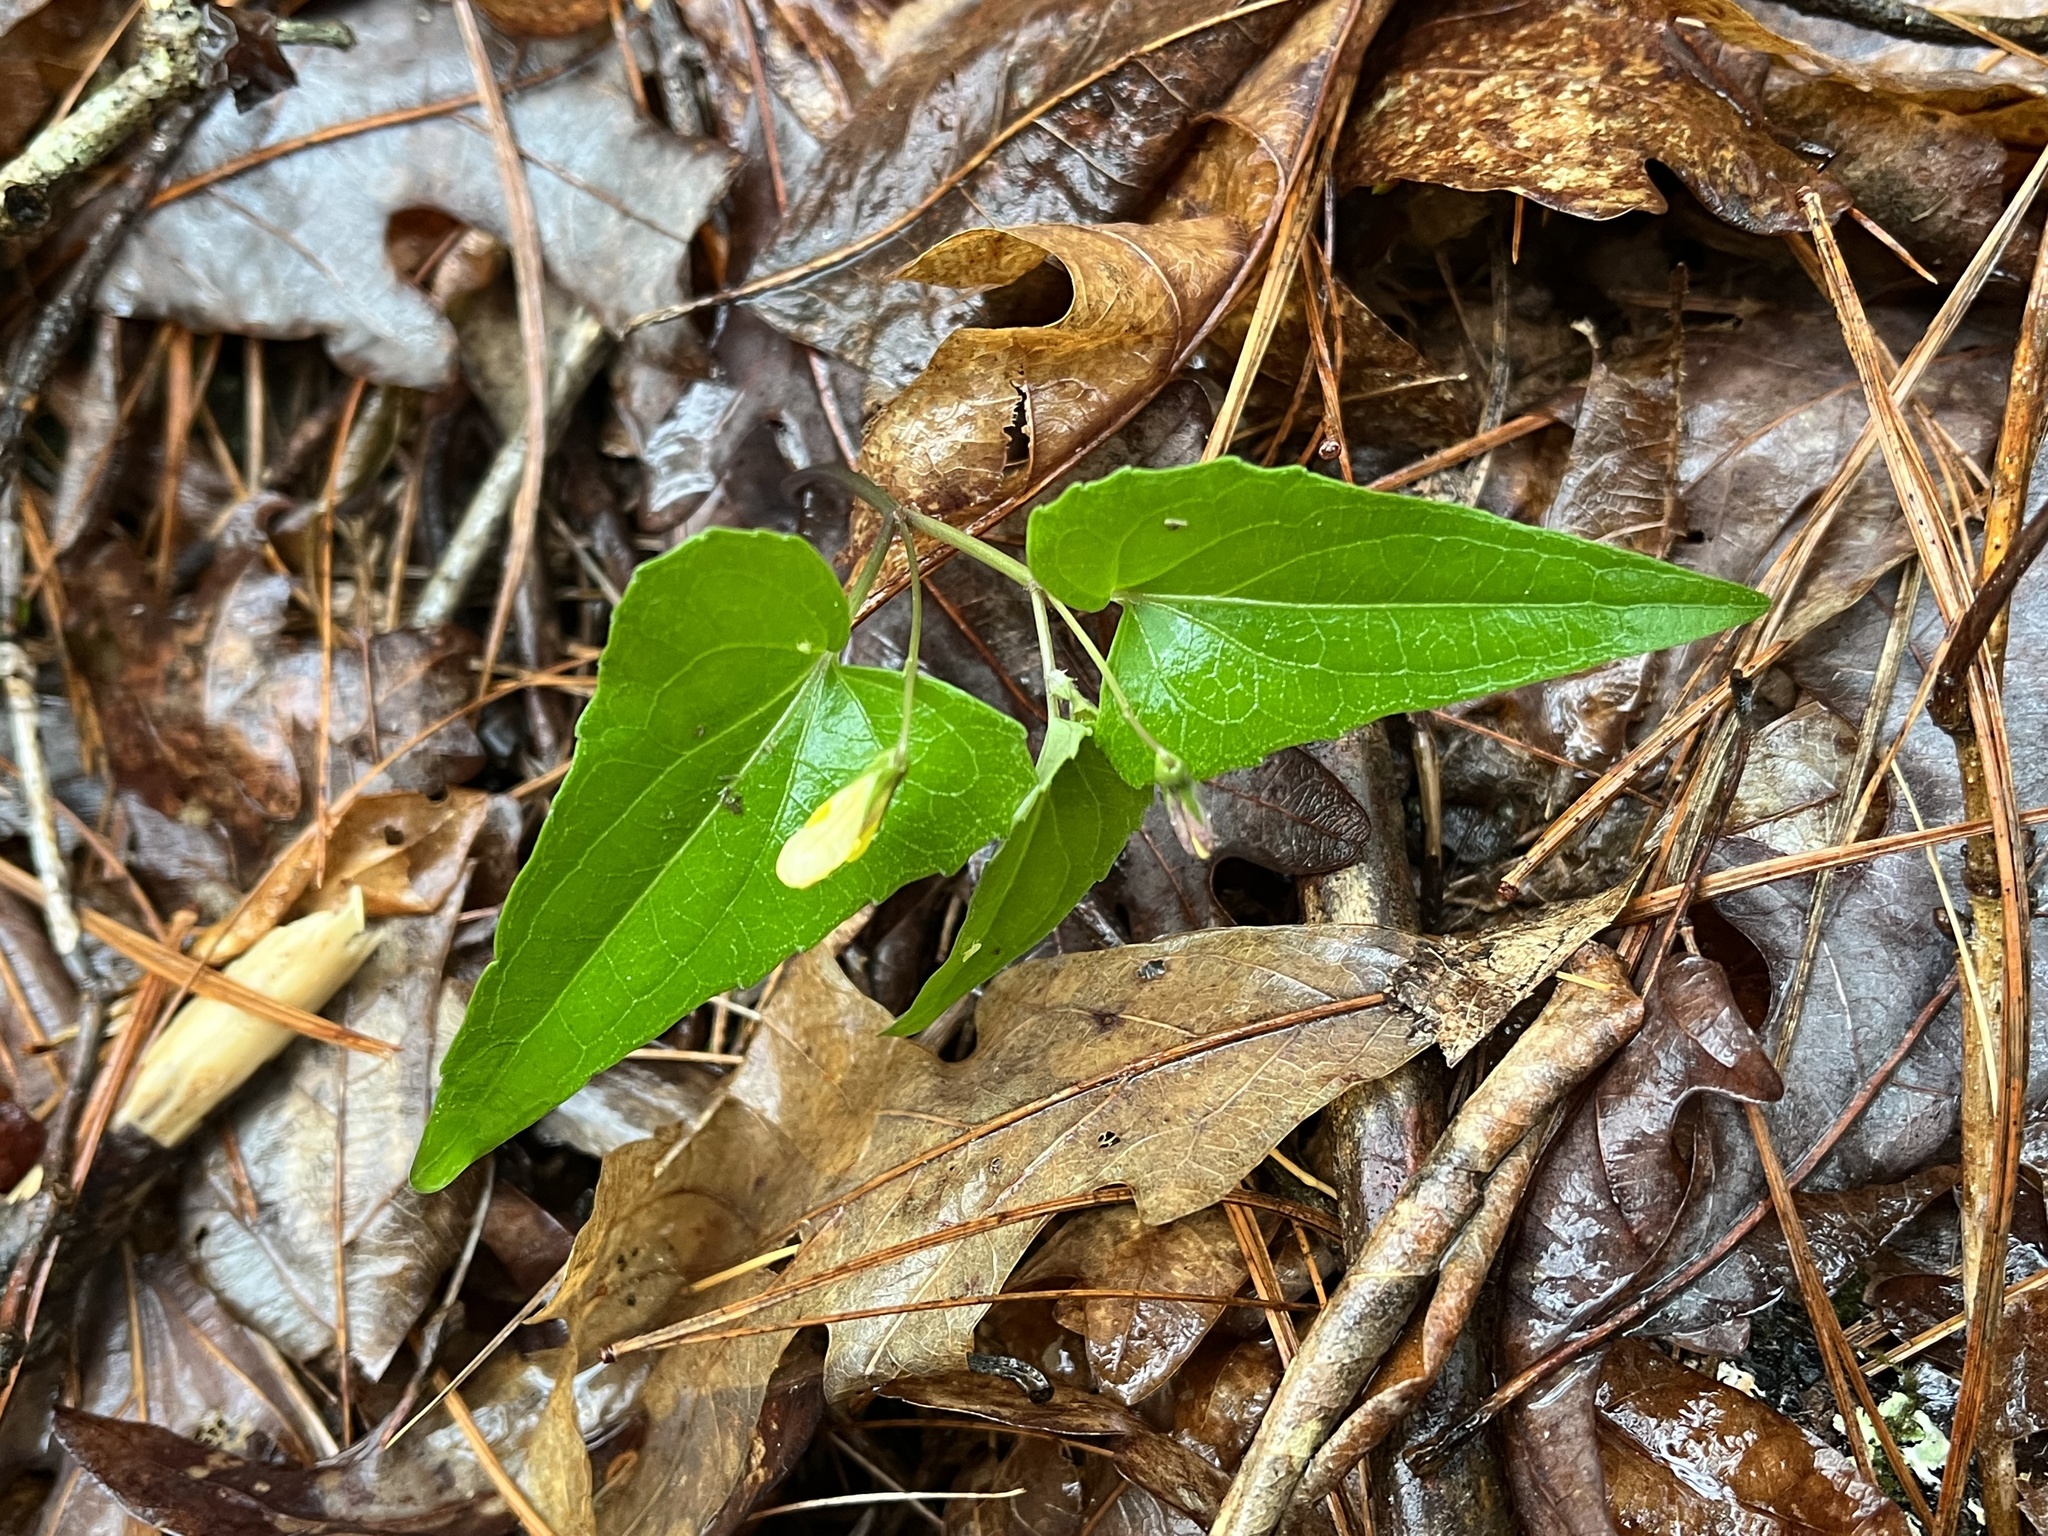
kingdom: Plantae
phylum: Tracheophyta
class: Magnoliopsida
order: Malpighiales
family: Violaceae
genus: Viola
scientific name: Viola hastata
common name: Spear-leaf violet
